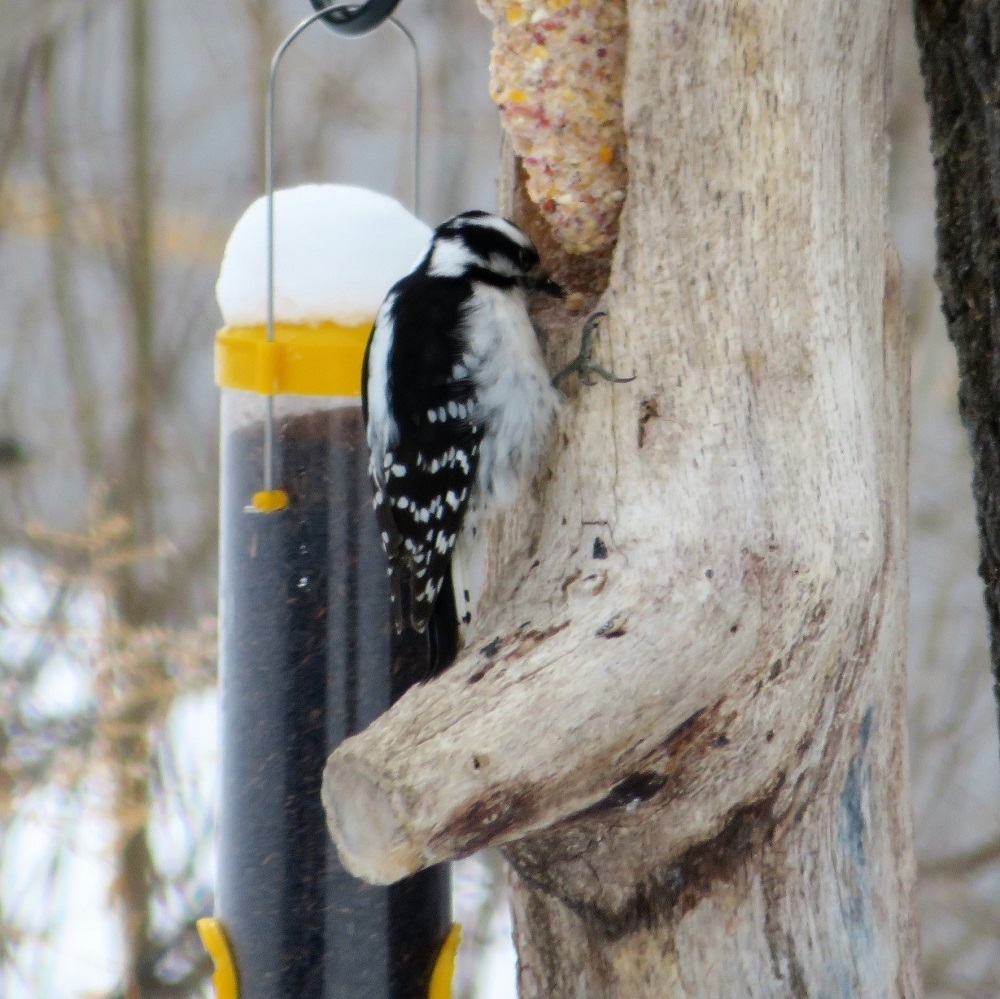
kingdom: Animalia
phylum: Chordata
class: Aves
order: Piciformes
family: Picidae
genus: Dryobates
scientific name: Dryobates pubescens
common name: Downy woodpecker
